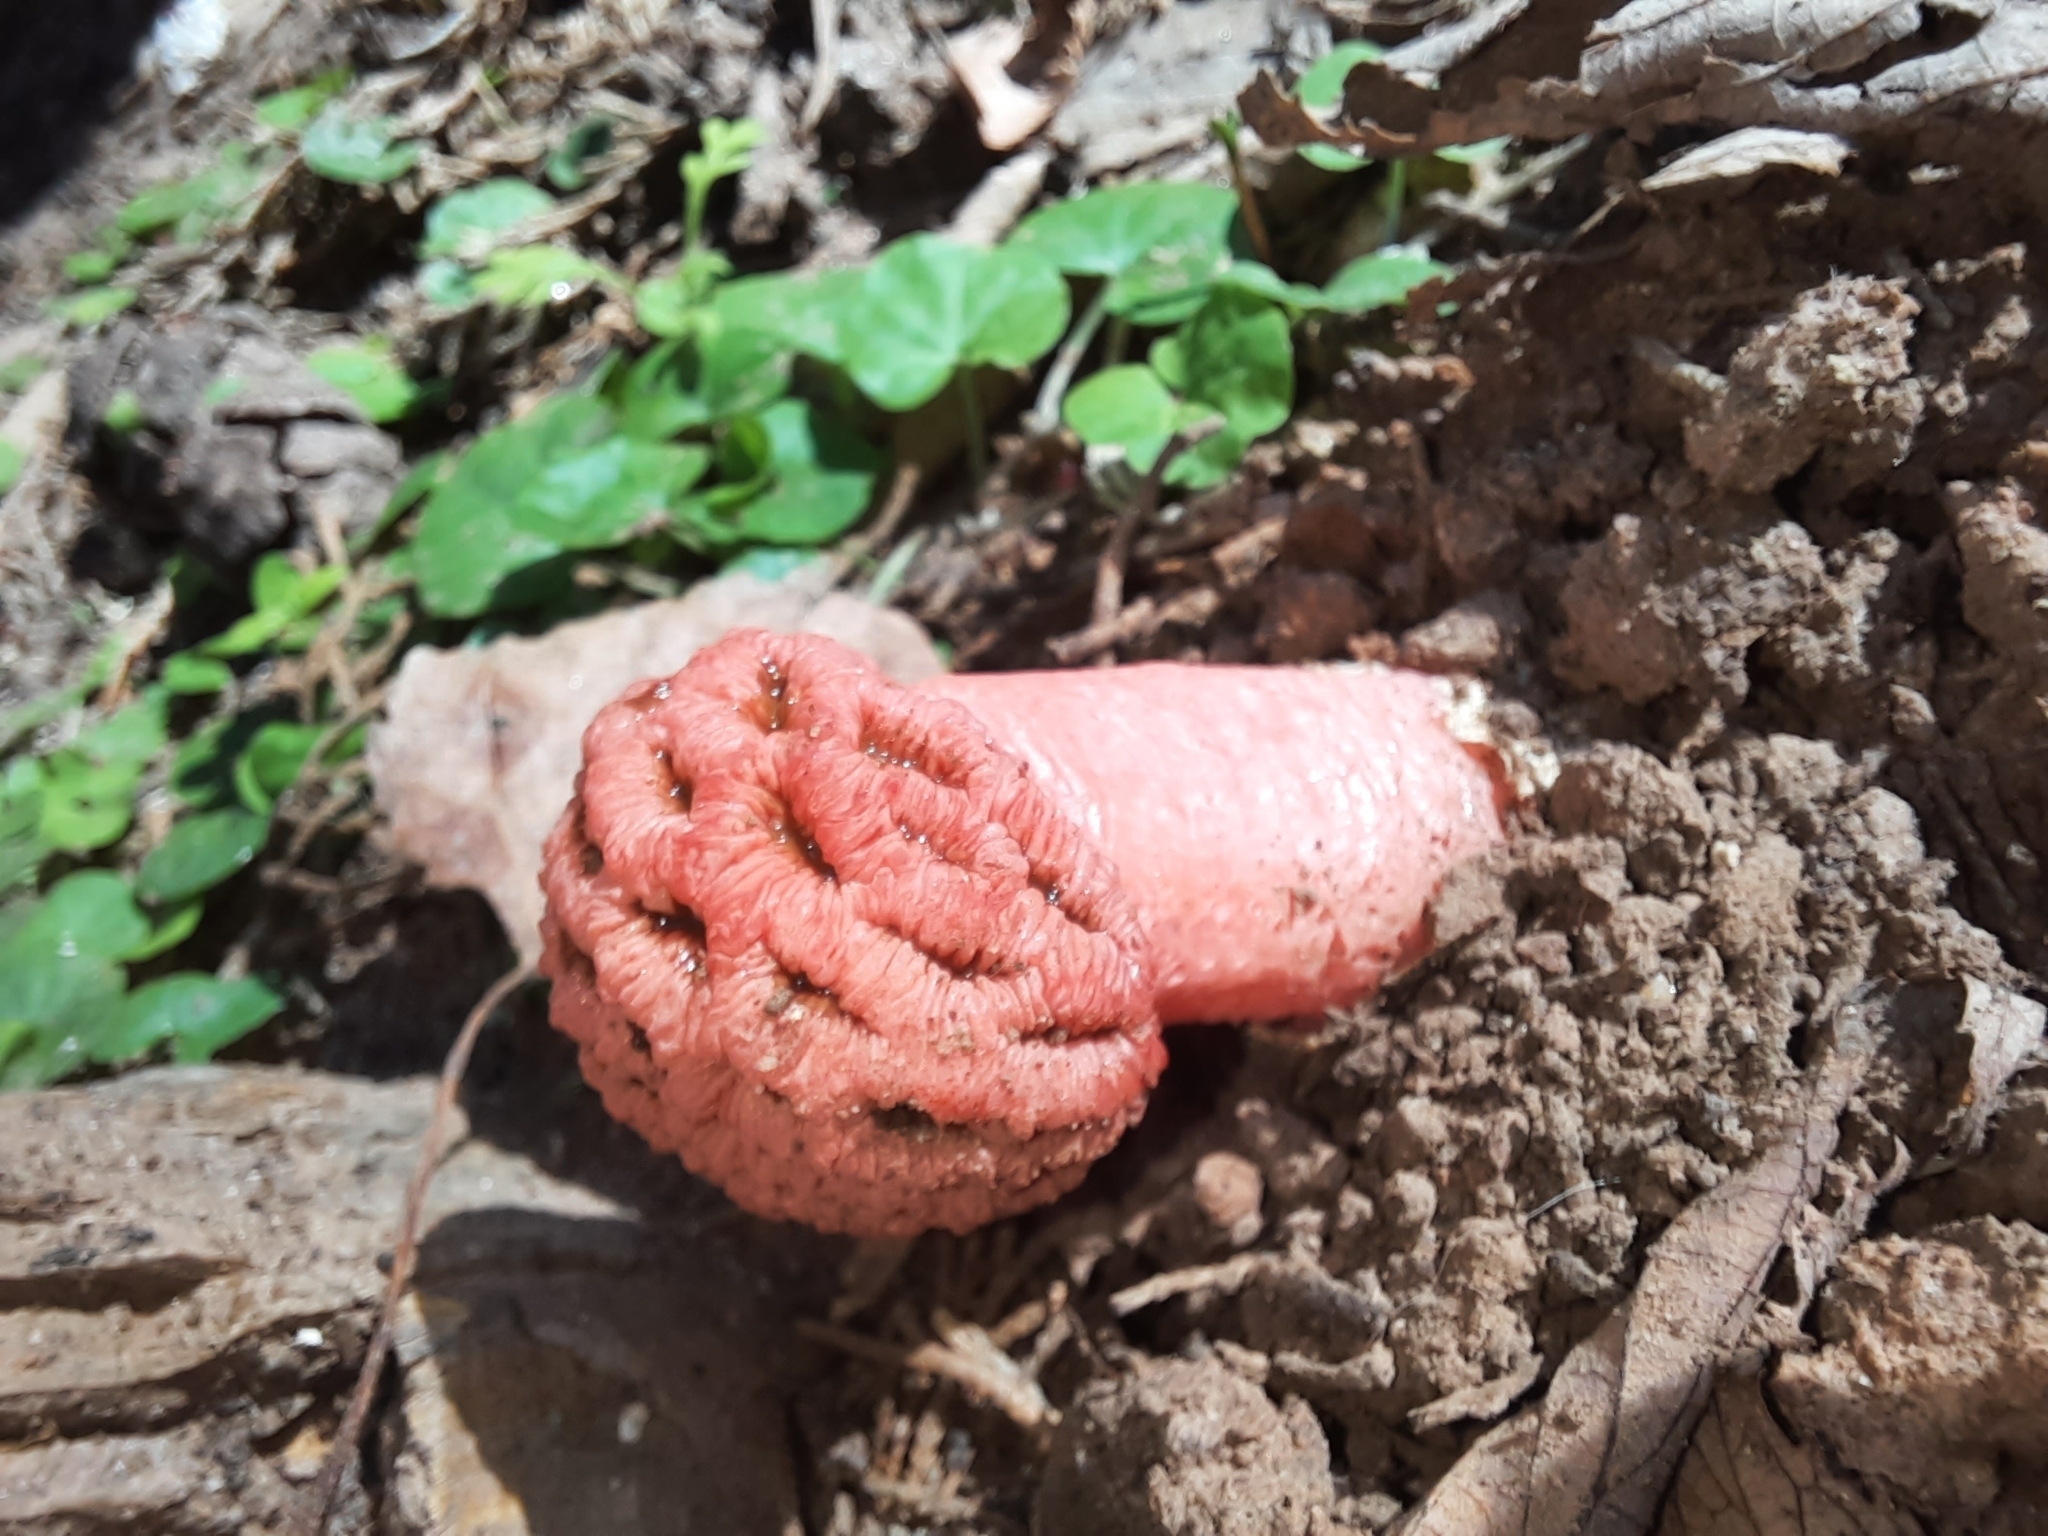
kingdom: Fungi
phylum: Basidiomycota
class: Agaricomycetes
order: Phallales
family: Phallaceae
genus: Lysurus
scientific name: Lysurus periphragmoides
